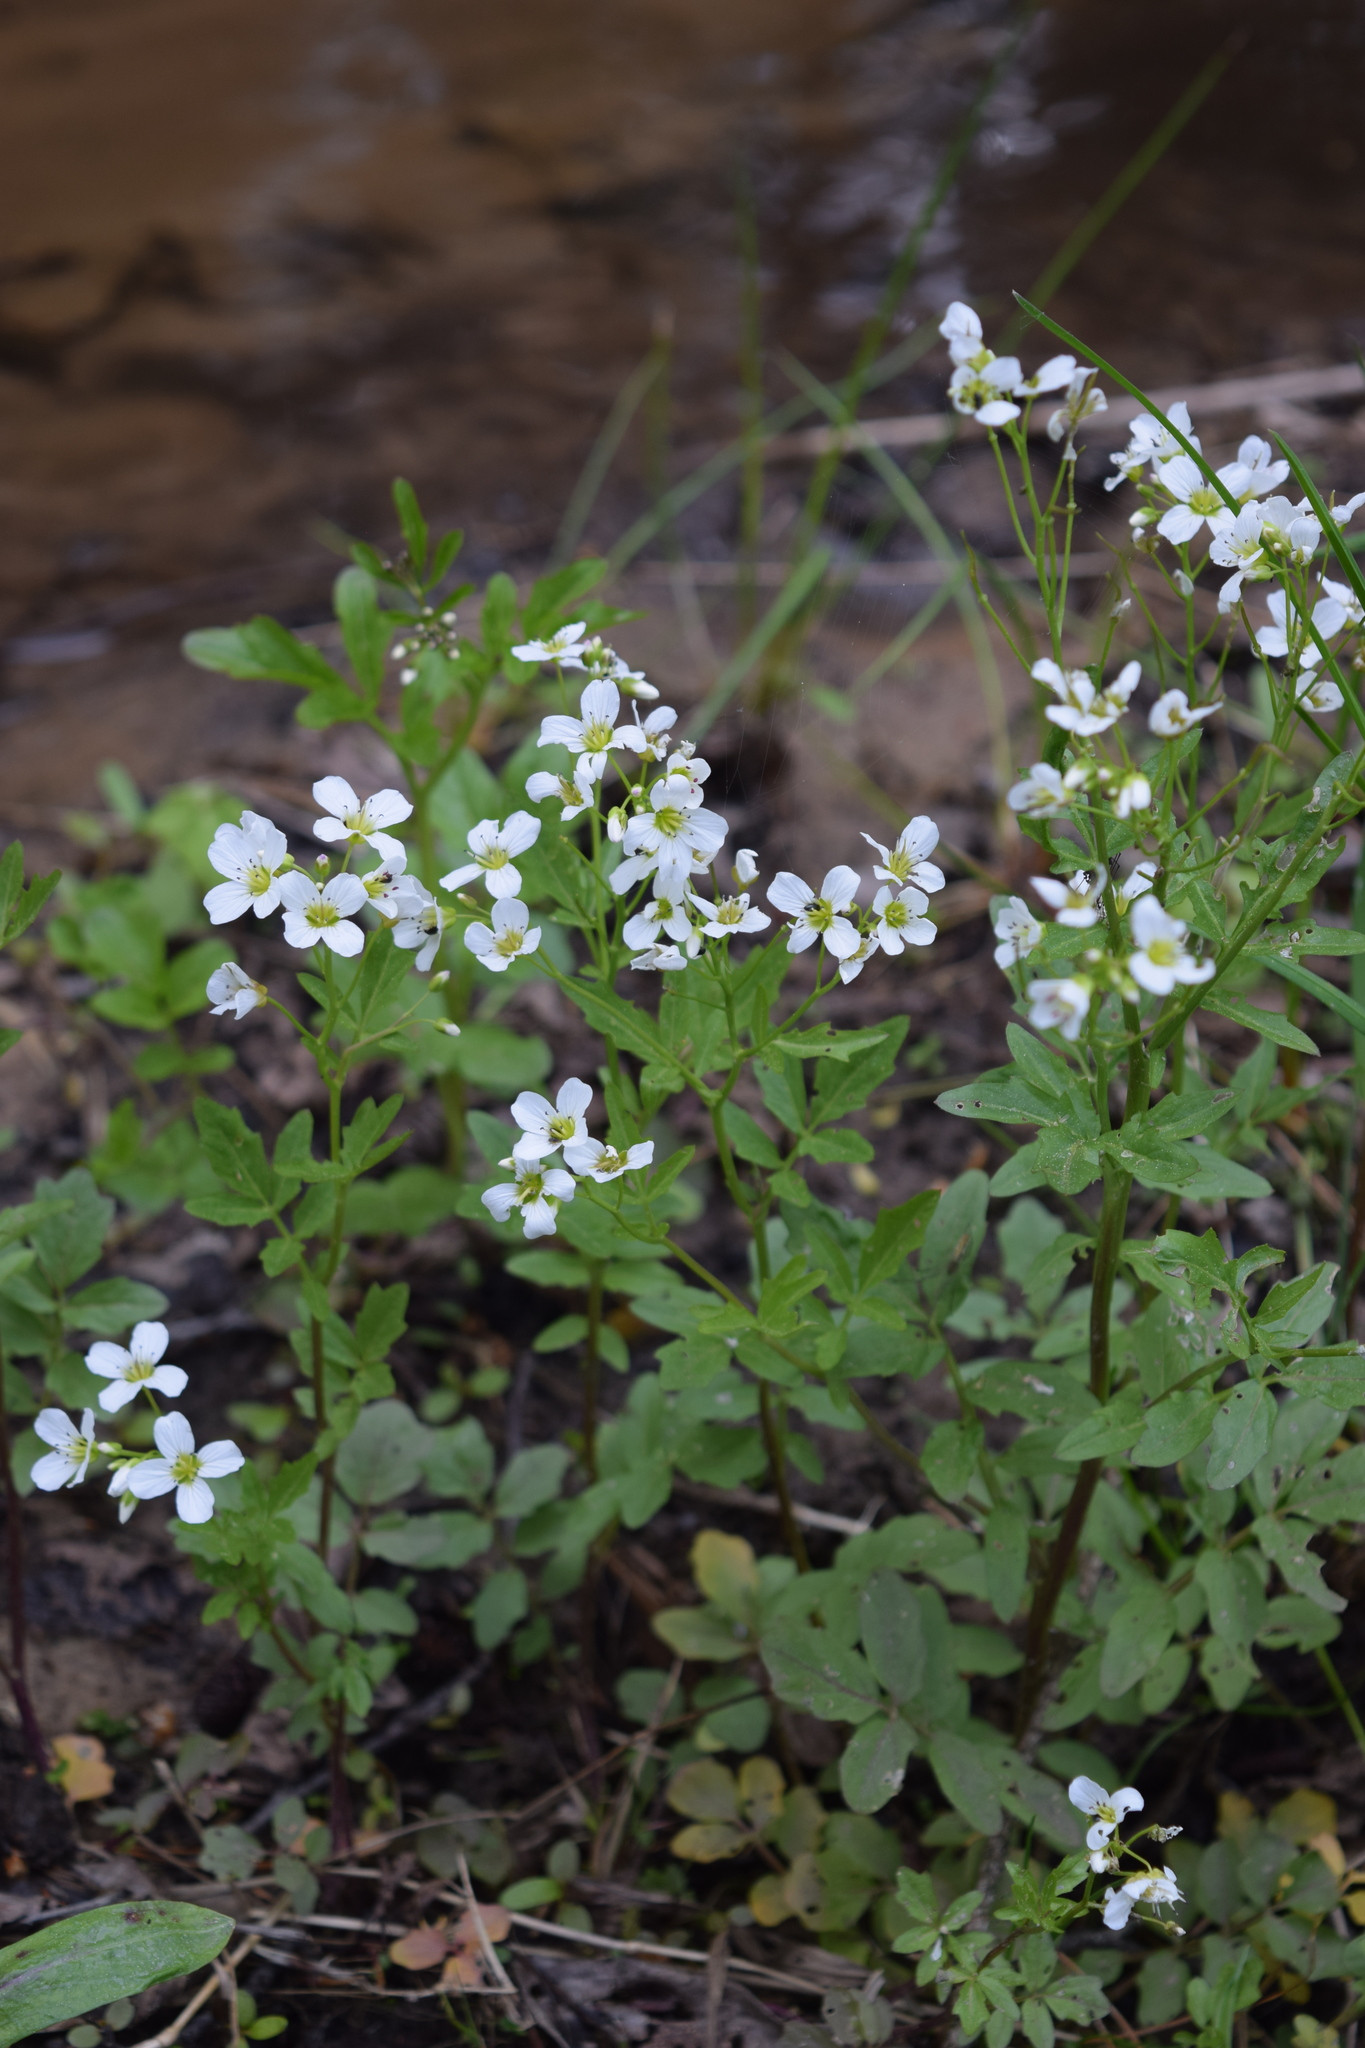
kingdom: Plantae
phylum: Tracheophyta
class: Magnoliopsida
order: Brassicales
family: Brassicaceae
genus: Cardamine
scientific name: Cardamine amara
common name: Large bitter-cress
